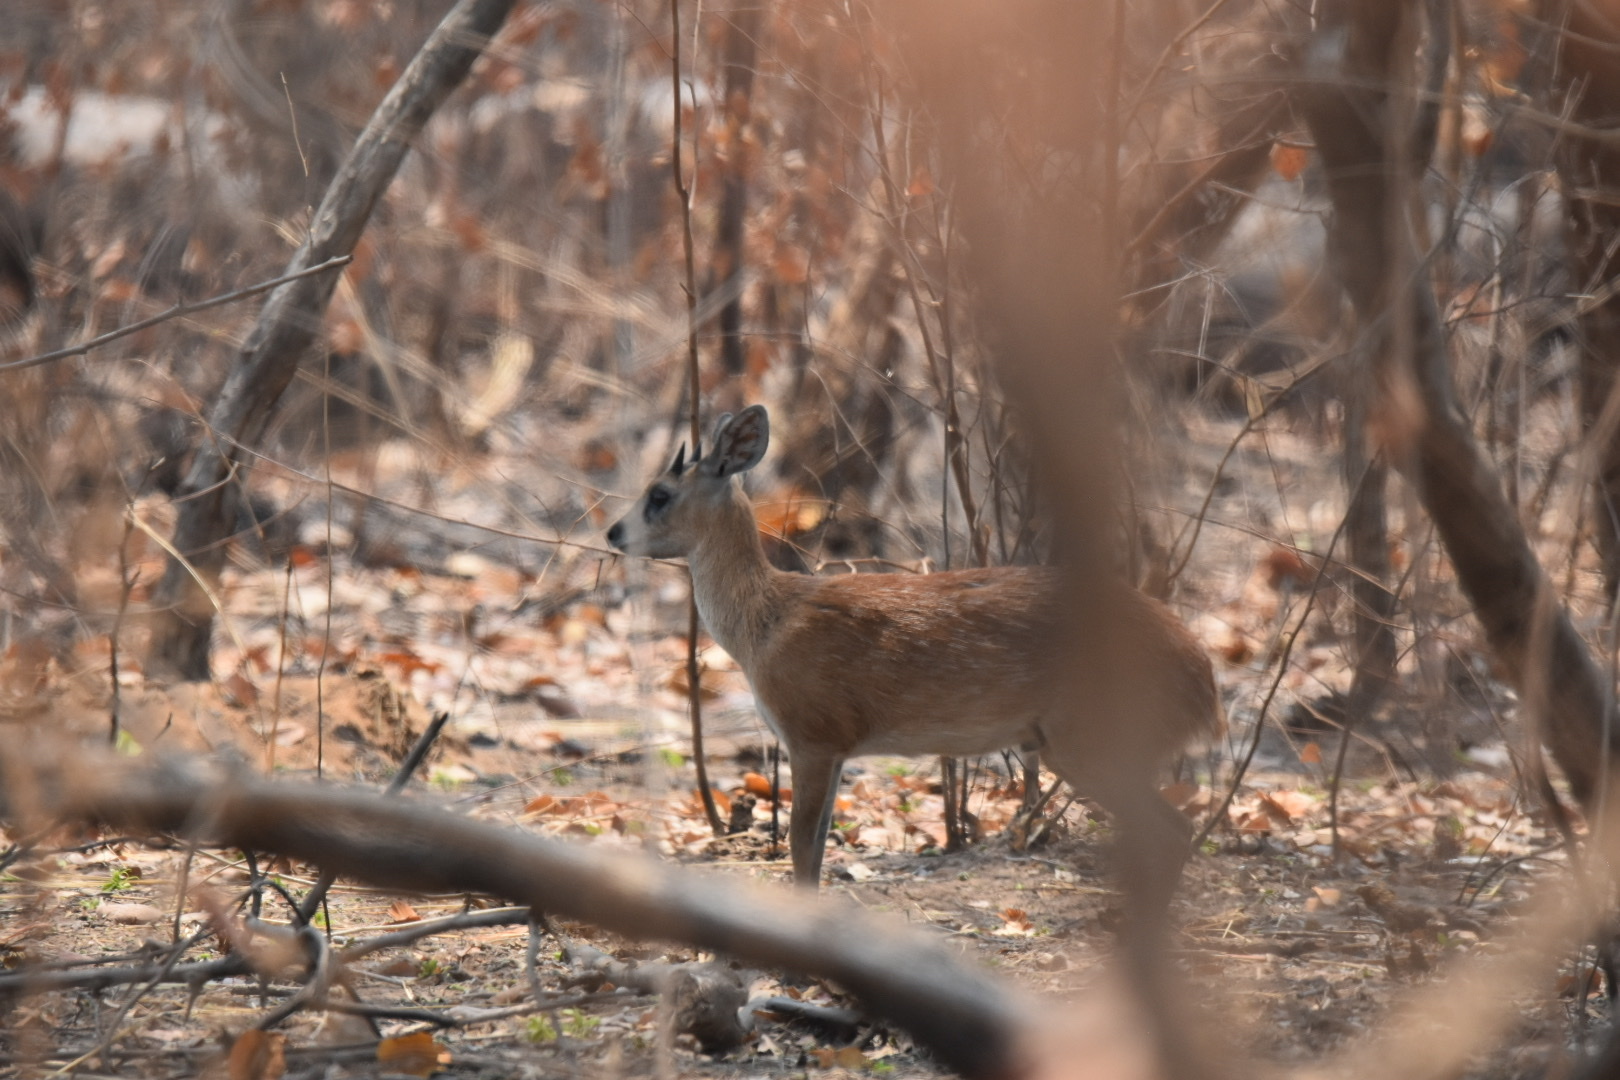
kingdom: Animalia
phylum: Chordata
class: Mammalia
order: Artiodactyla
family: Bovidae
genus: Raphicerus
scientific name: Raphicerus sharpei
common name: Sharpe's grysbok
